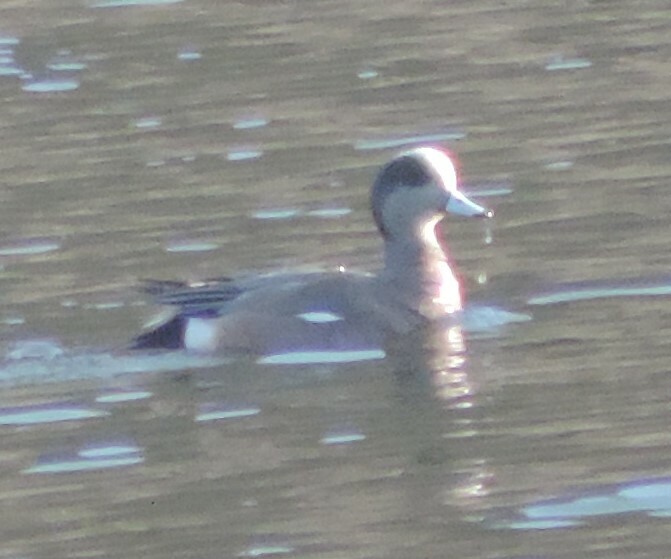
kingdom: Animalia
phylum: Chordata
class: Aves
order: Anseriformes
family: Anatidae
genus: Mareca
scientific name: Mareca americana
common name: American wigeon
